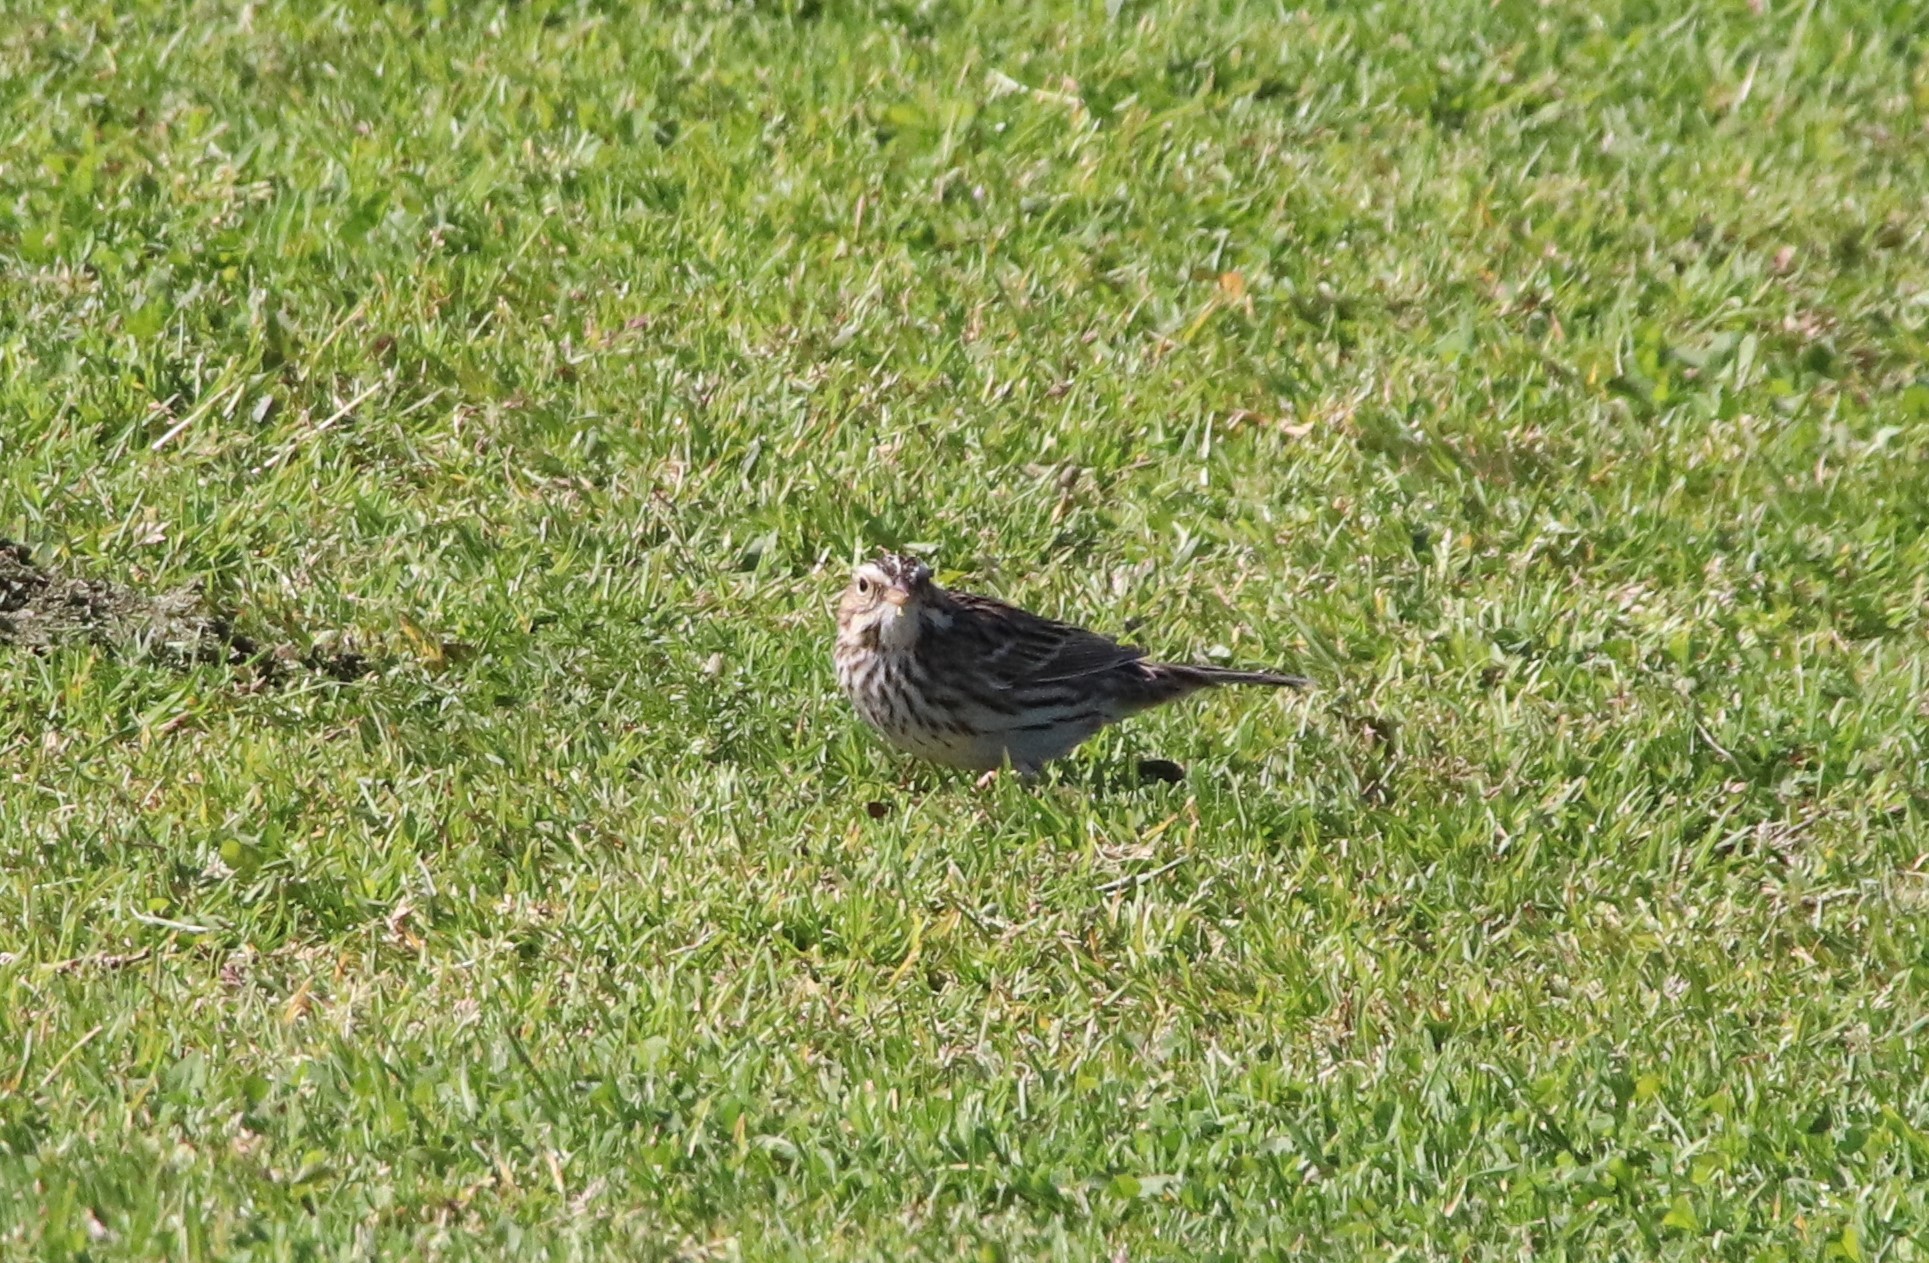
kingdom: Animalia
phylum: Chordata
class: Aves
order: Passeriformes
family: Passerellidae
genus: Passerculus
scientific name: Passerculus sandwichensis
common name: Savannah sparrow
